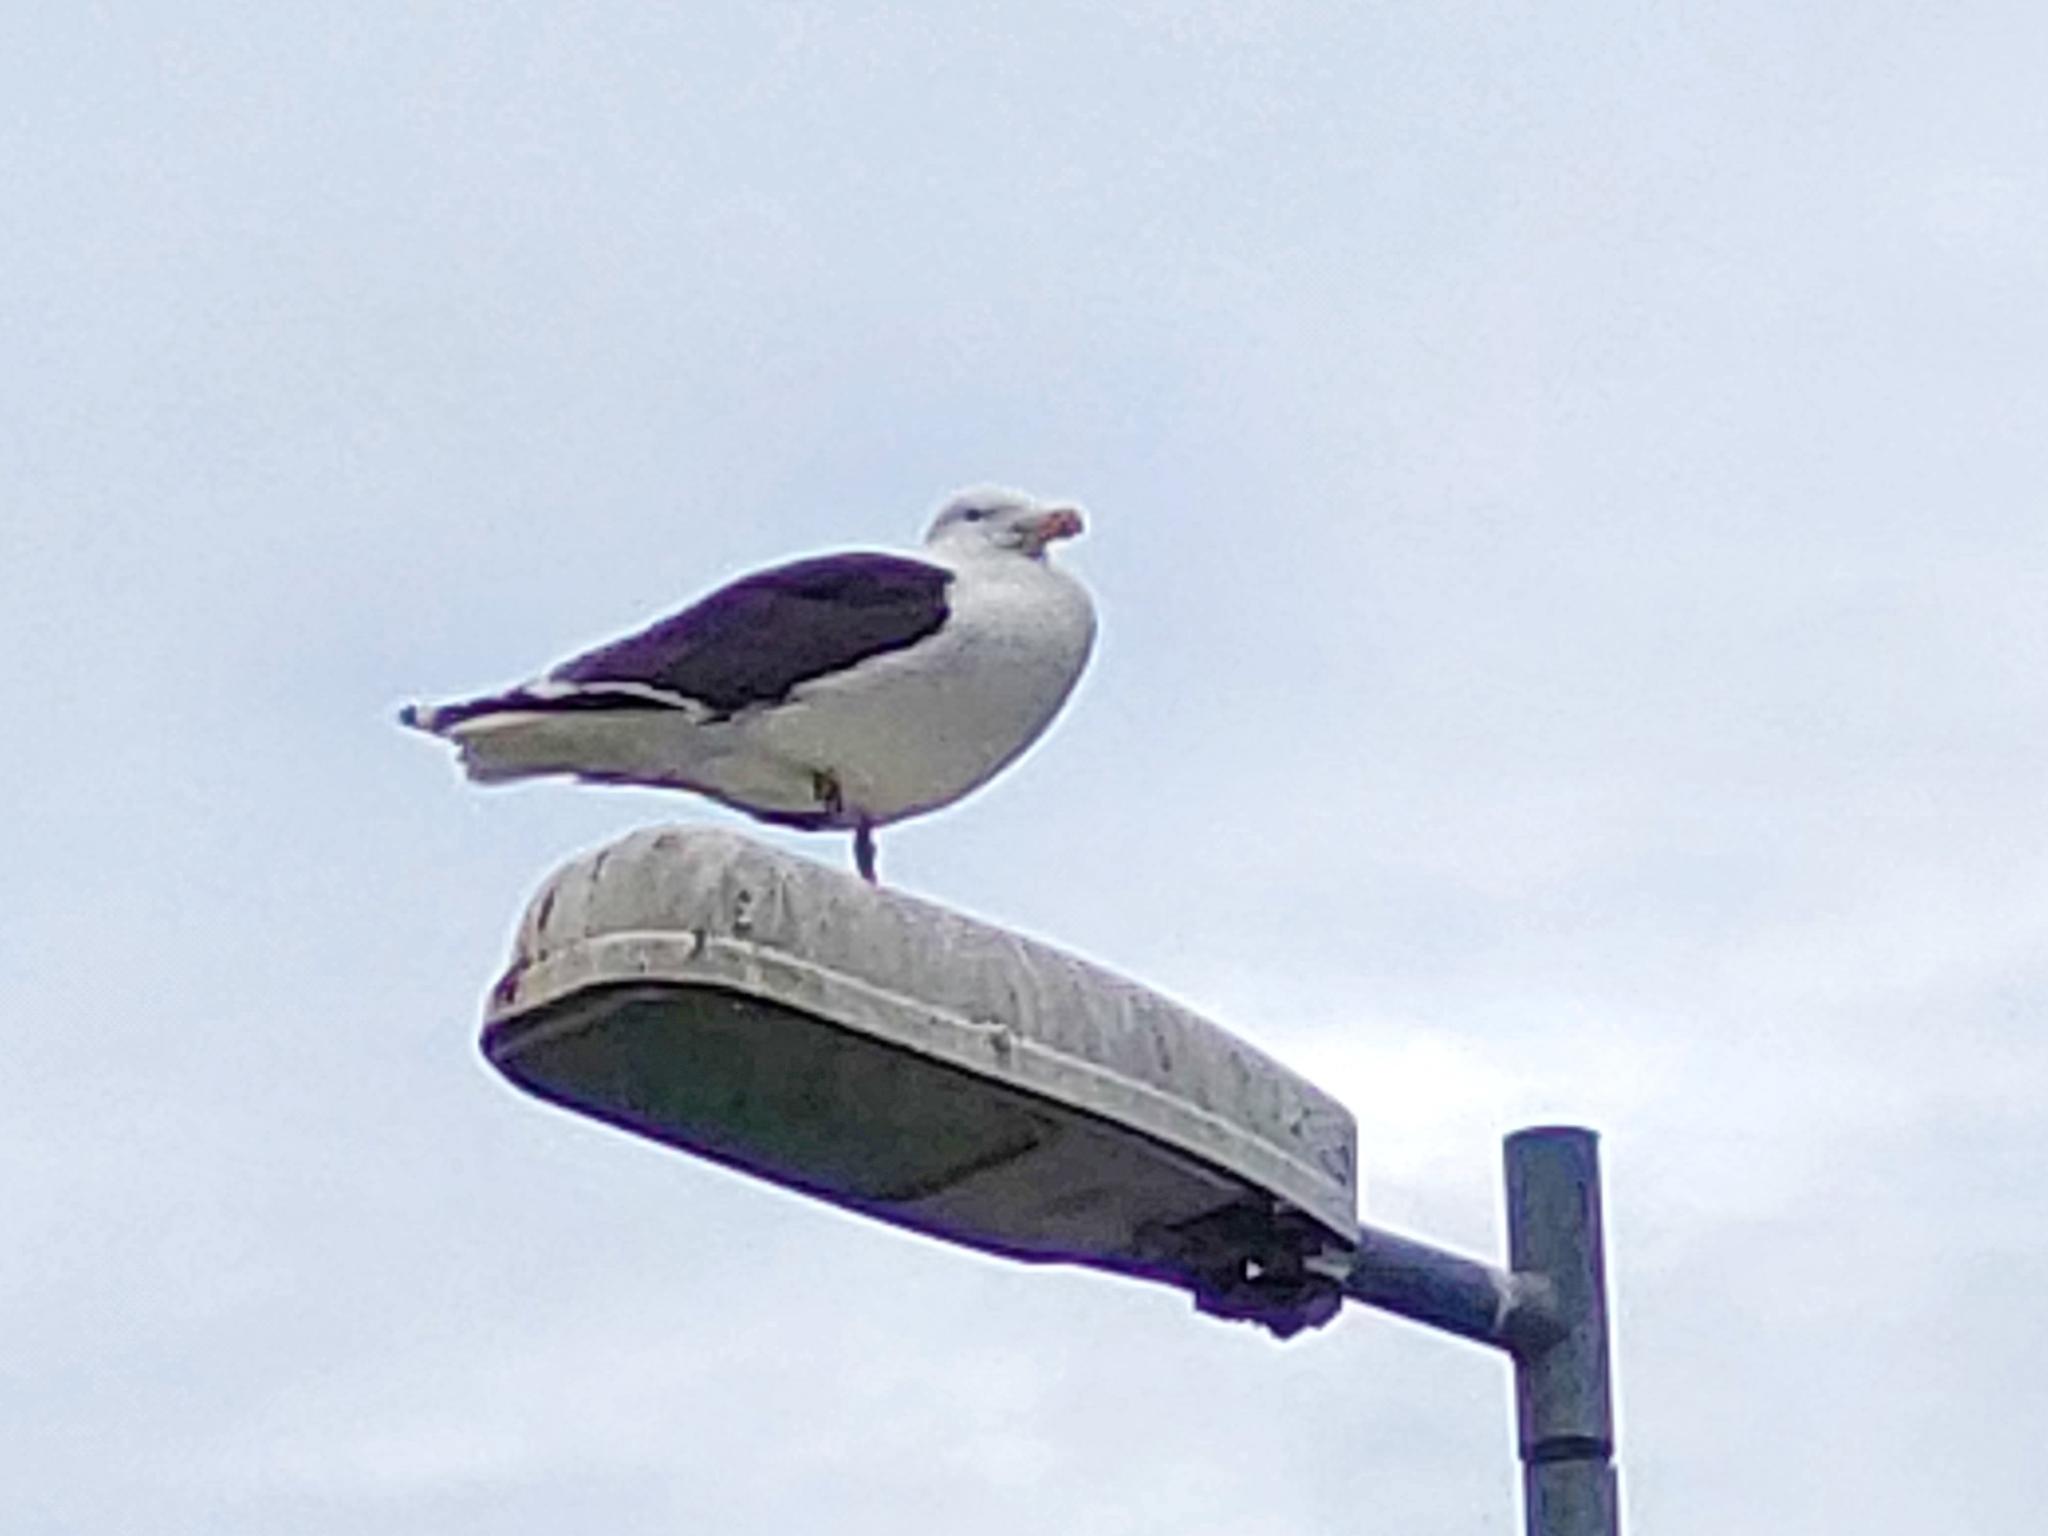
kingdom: Animalia
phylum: Chordata
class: Aves
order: Charadriiformes
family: Laridae
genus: Larus
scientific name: Larus marinus
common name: Great black-backed gull
